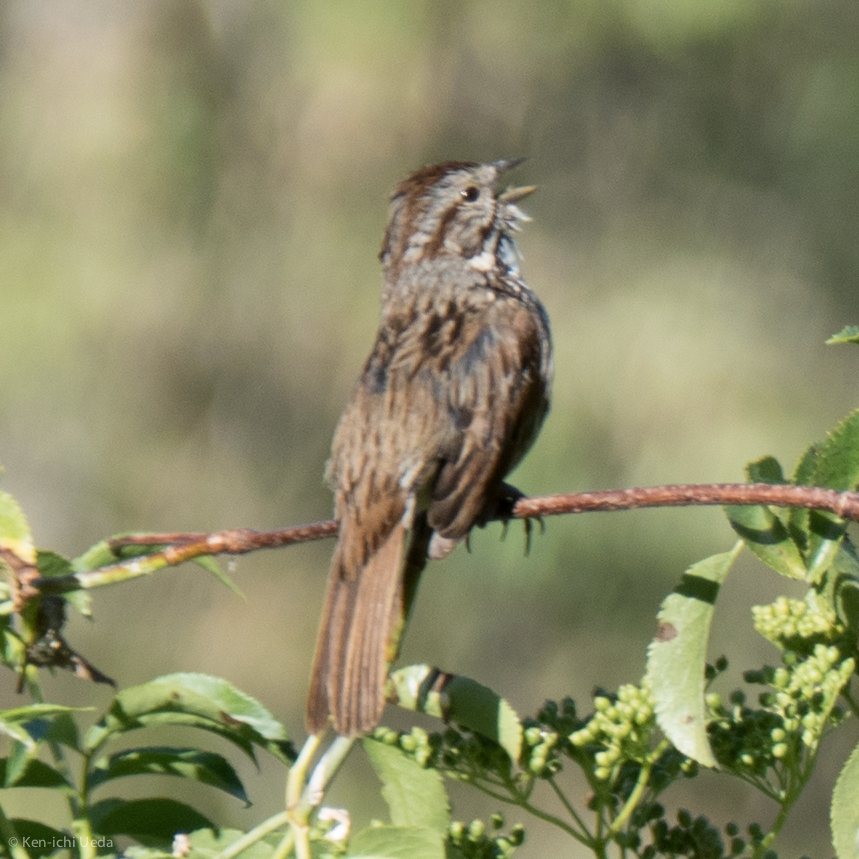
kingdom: Animalia
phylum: Chordata
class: Aves
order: Passeriformes
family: Passerellidae
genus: Melospiza
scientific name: Melospiza melodia
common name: Song sparrow
